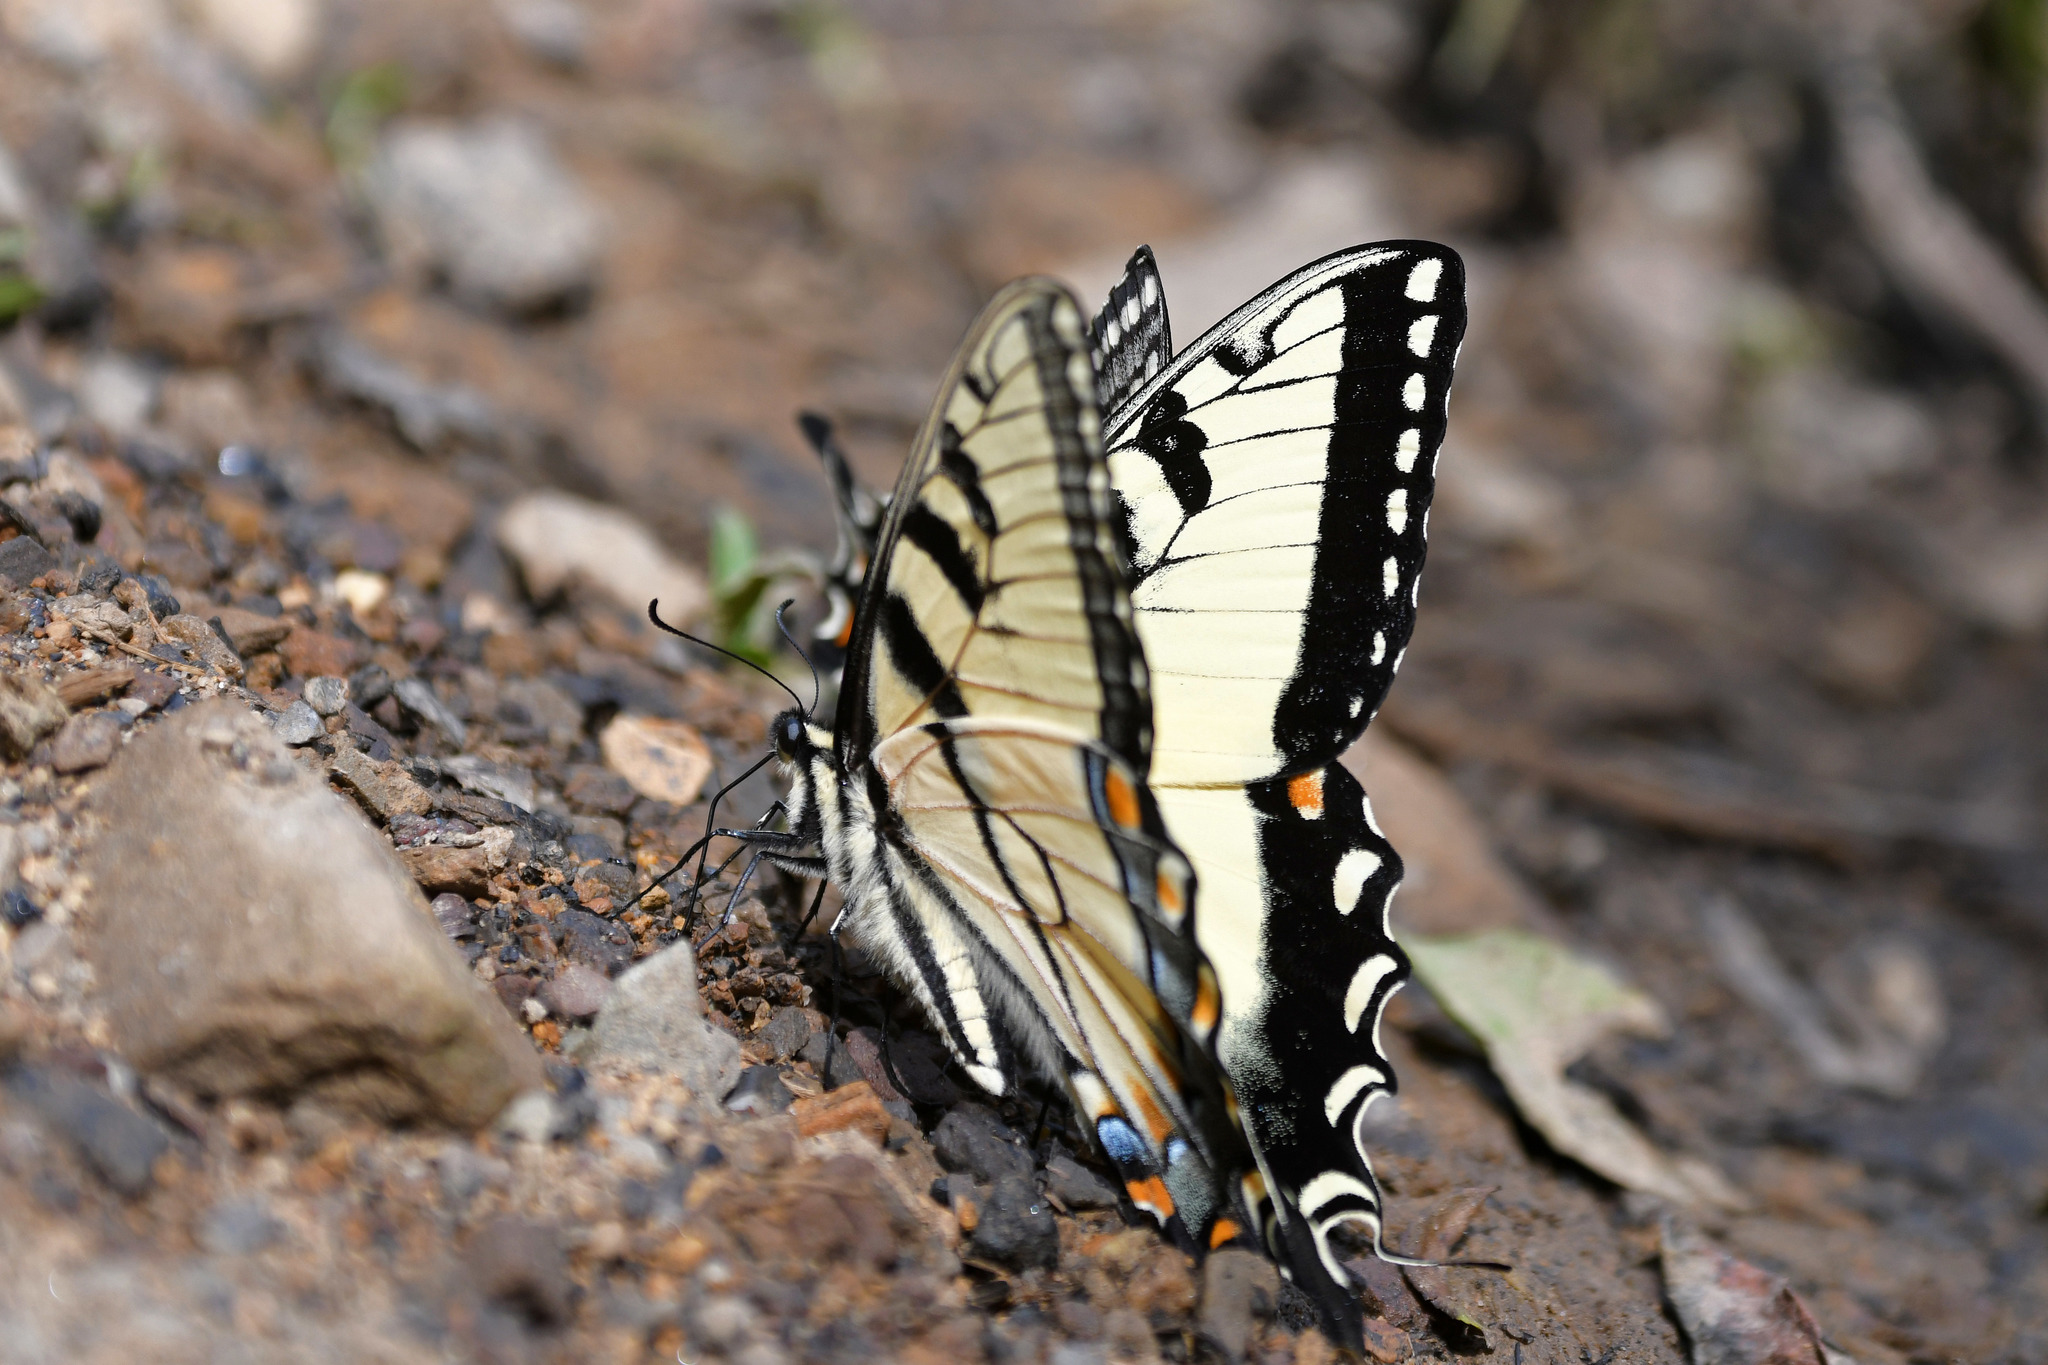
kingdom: Animalia
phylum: Arthropoda
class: Insecta
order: Lepidoptera
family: Papilionidae
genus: Papilio
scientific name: Papilio glaucus
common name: Tiger swallowtail
